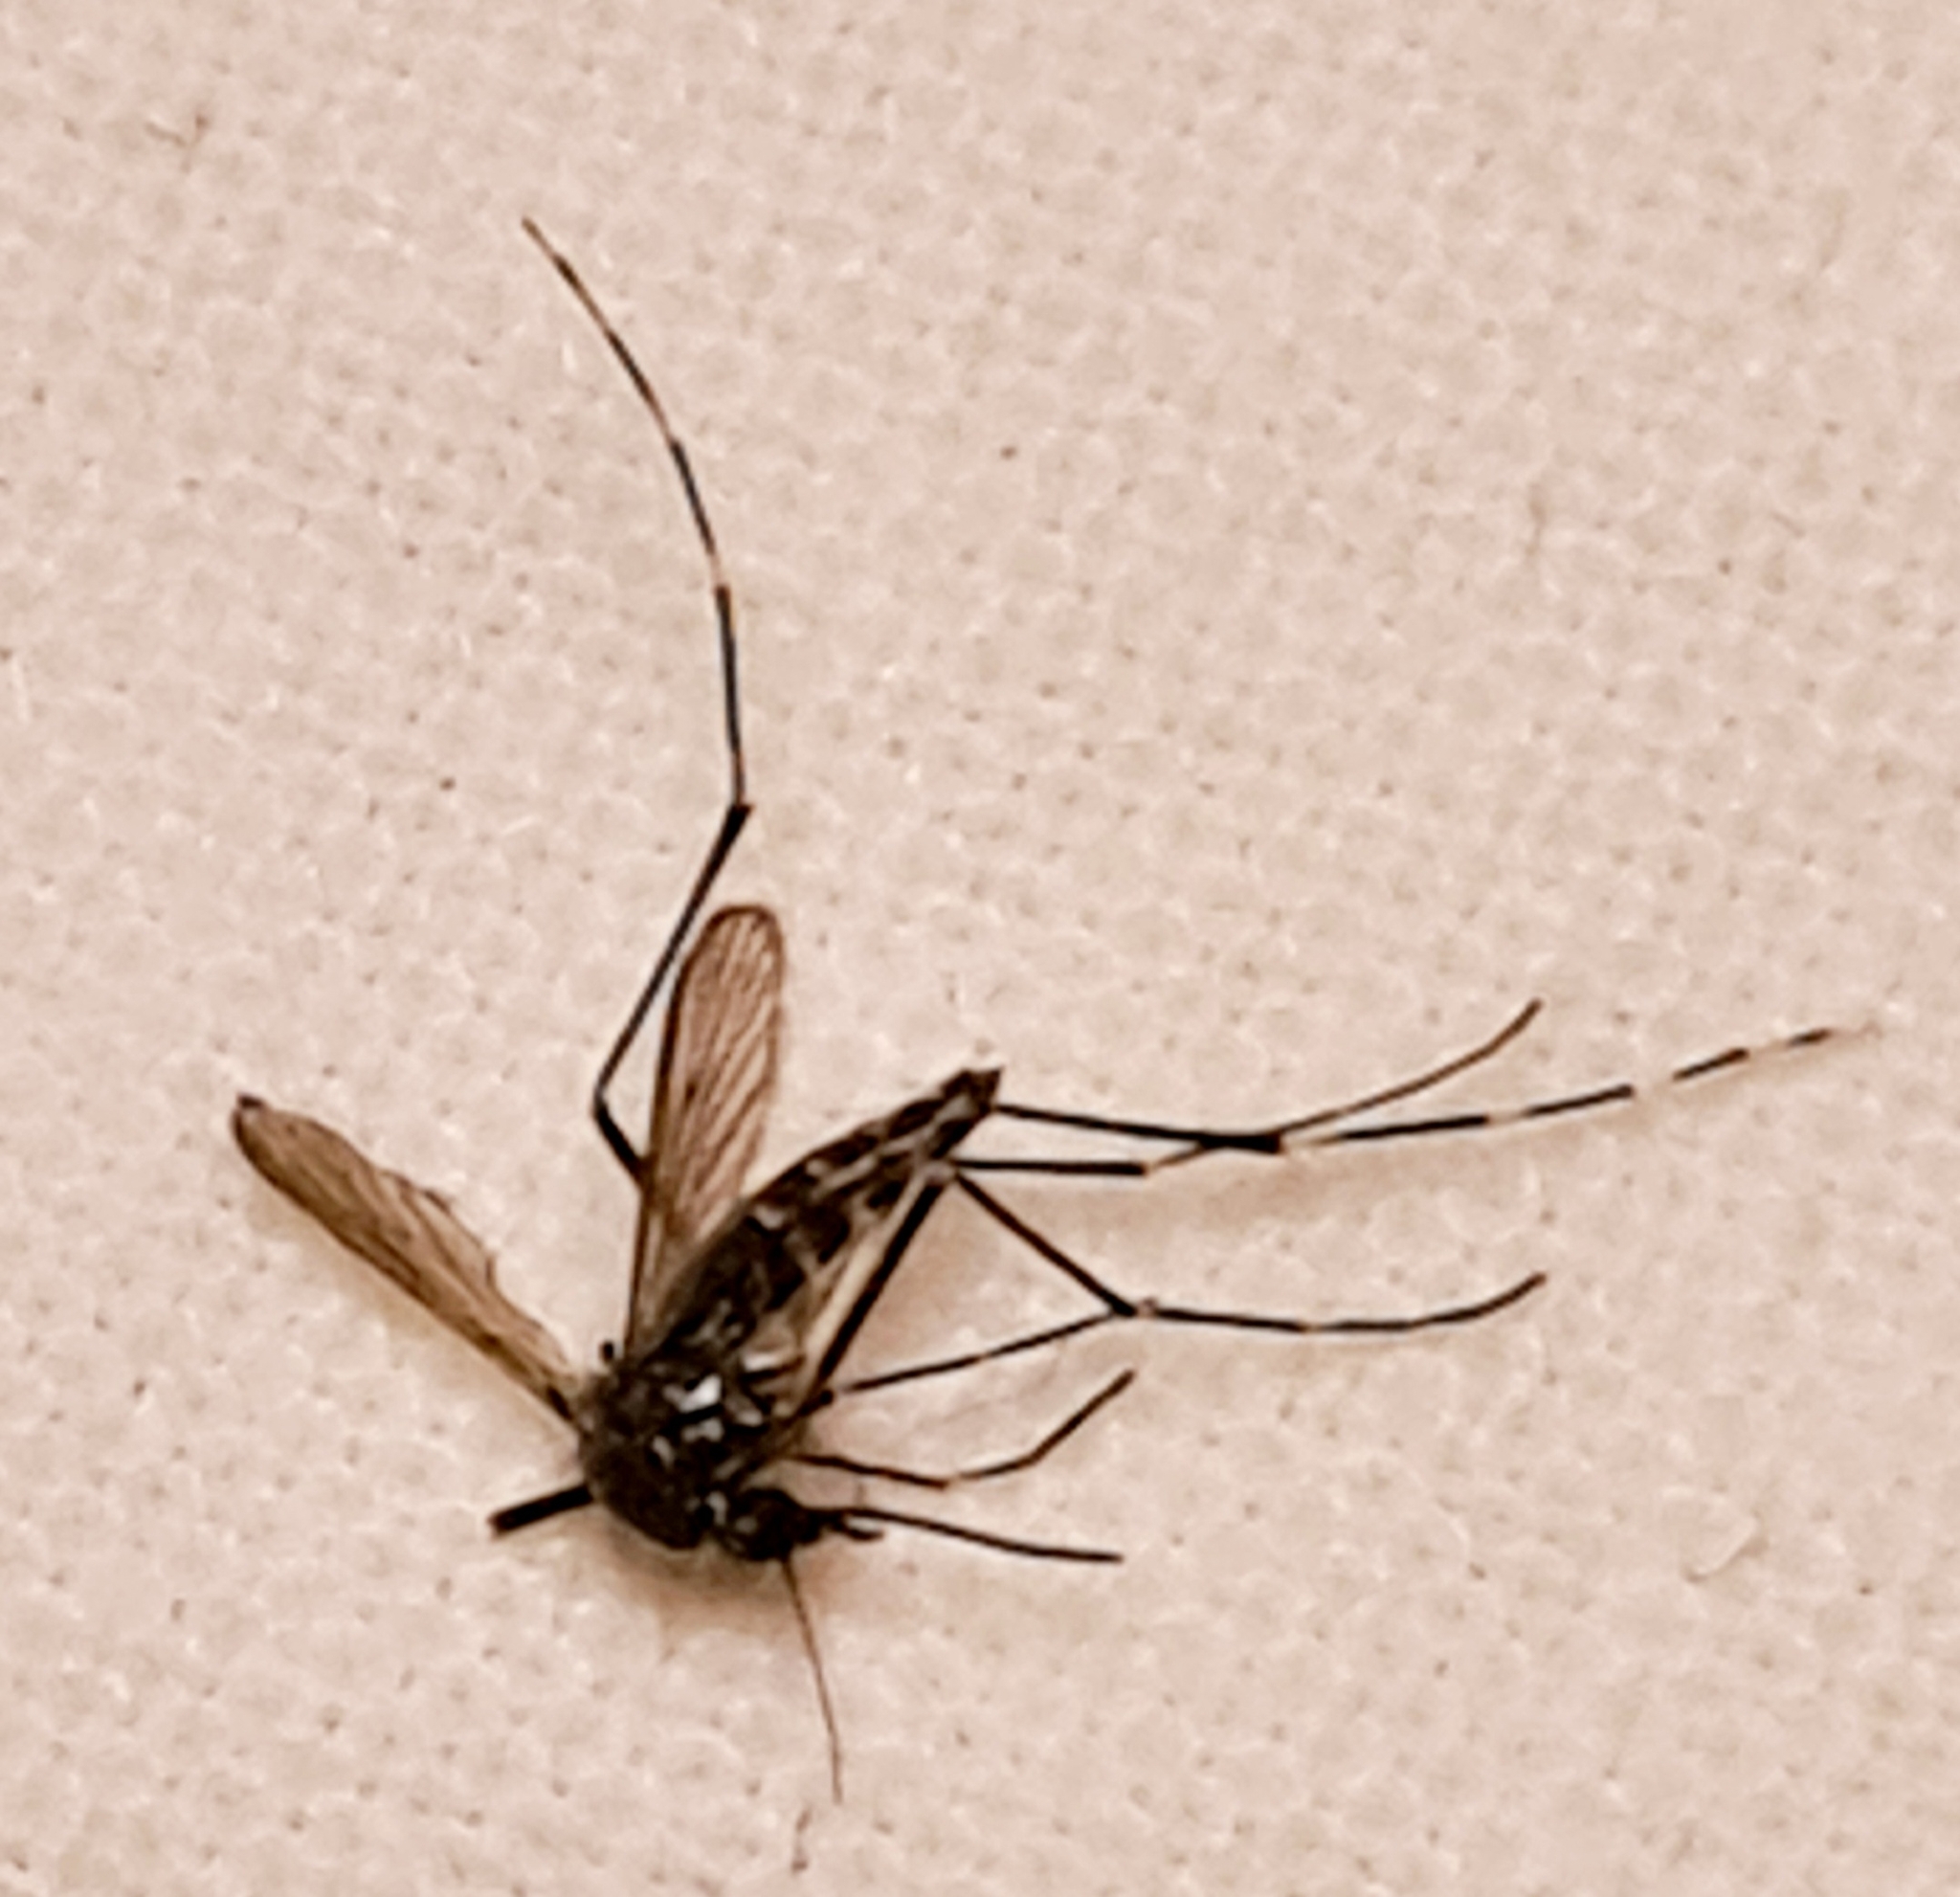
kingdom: Animalia
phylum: Arthropoda
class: Insecta
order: Diptera
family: Culicidae
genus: Aedes
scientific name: Aedes albopictus
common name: Tiger mosquito
